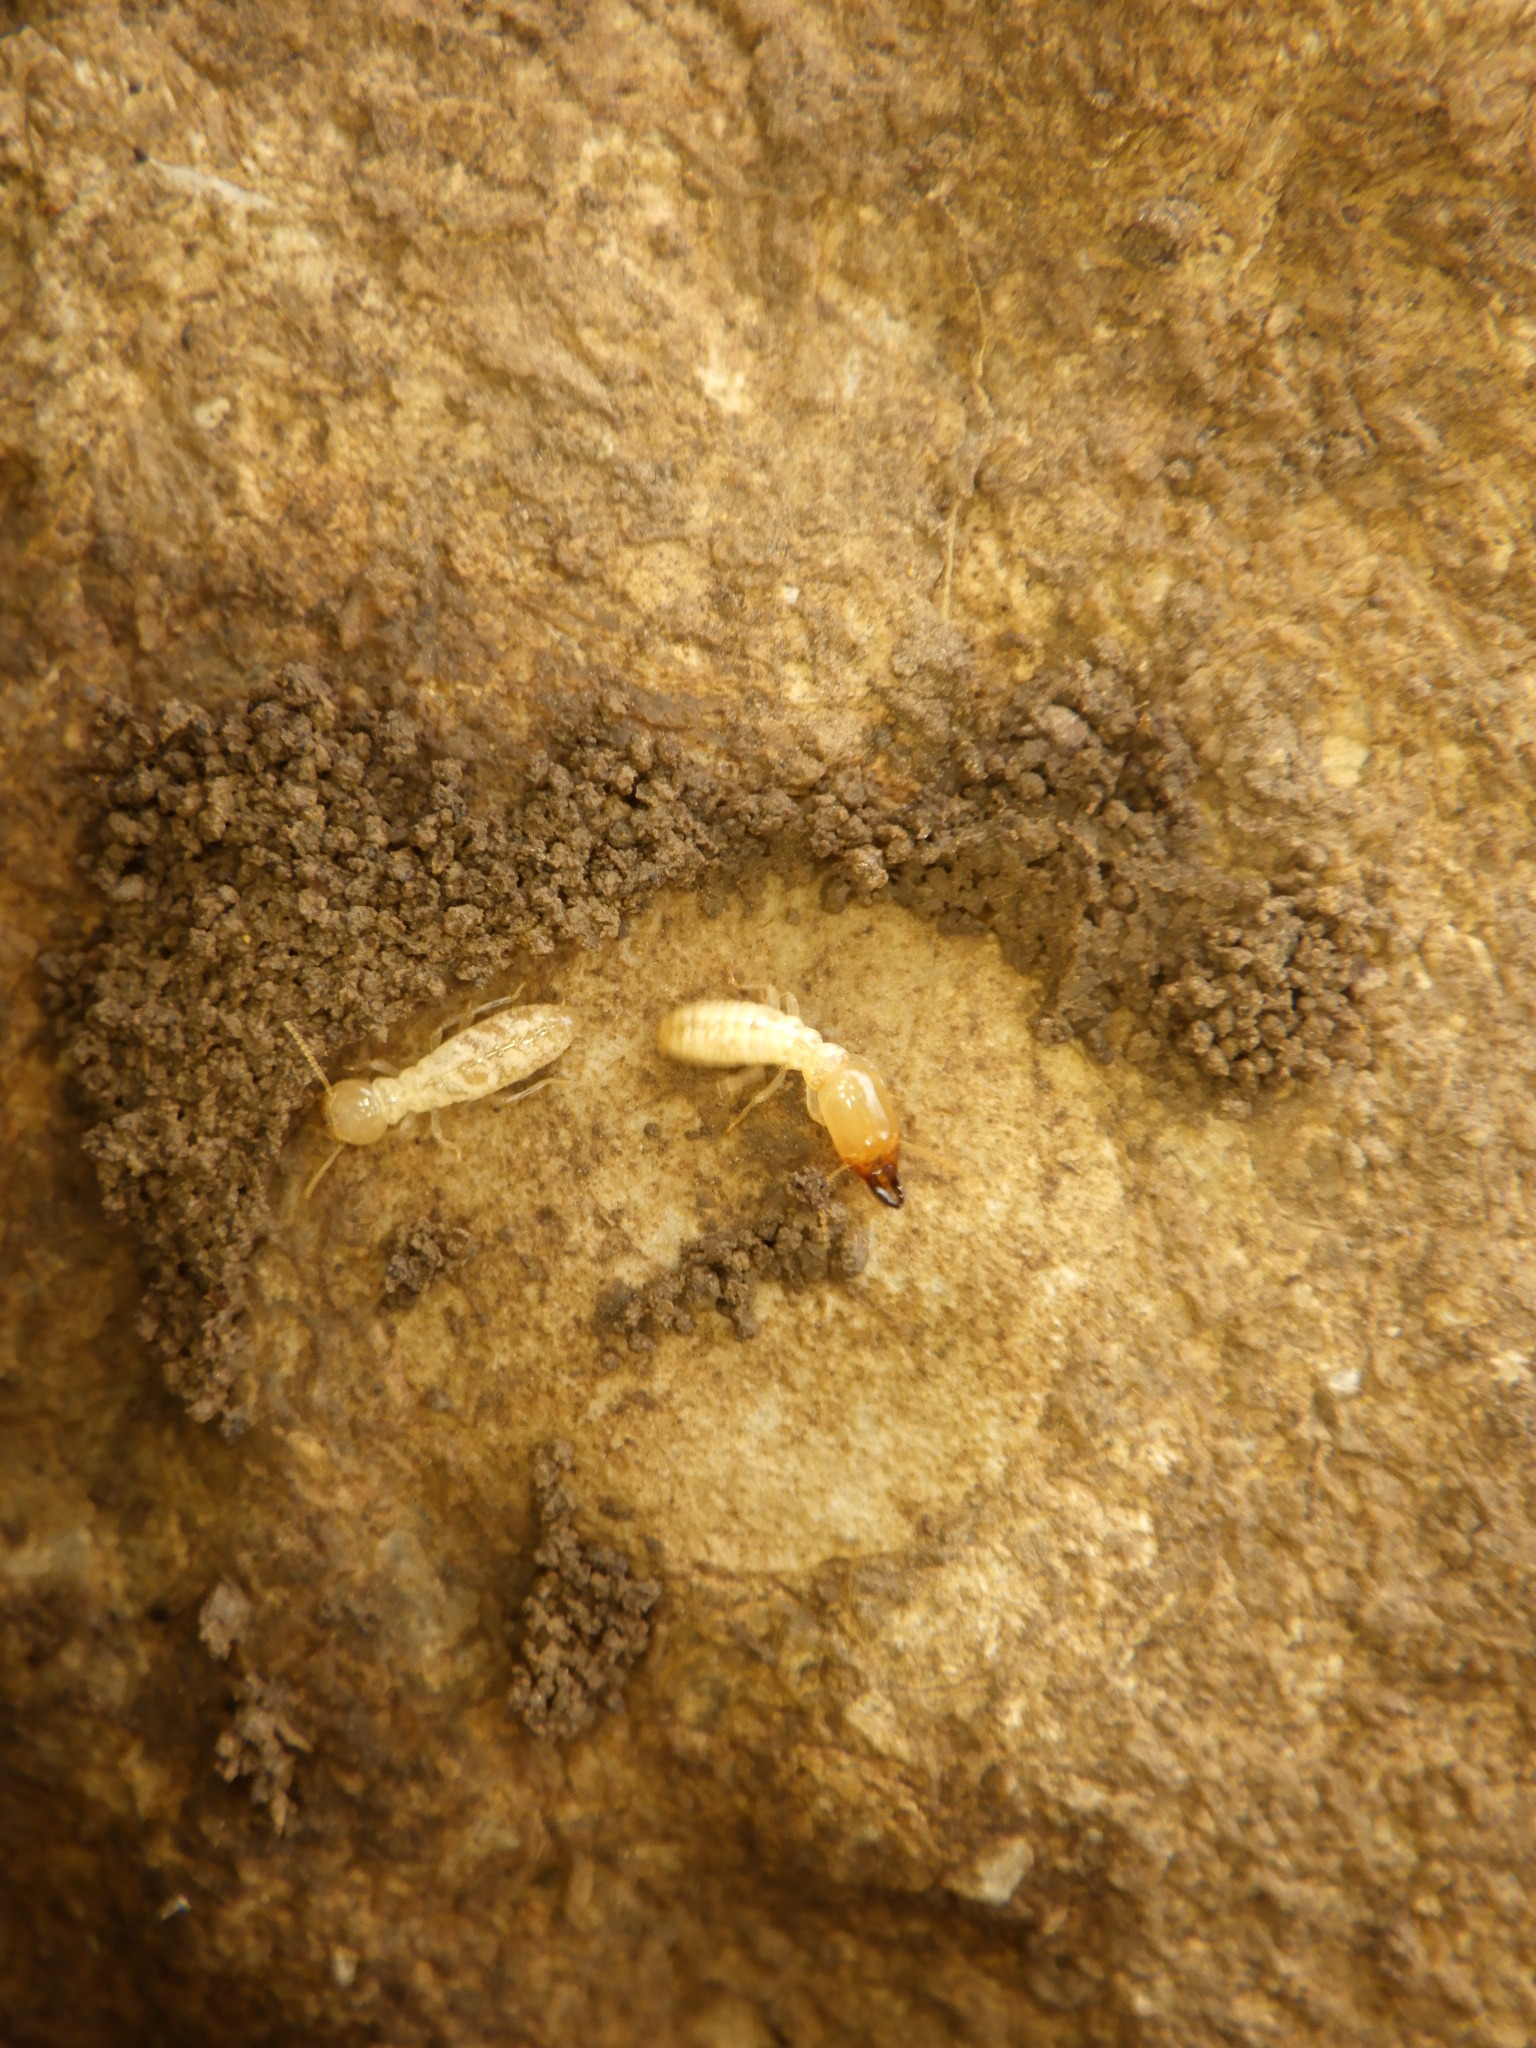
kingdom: Animalia
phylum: Arthropoda
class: Insecta
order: Blattodea
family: Rhinotermitidae
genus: Reticulitermes
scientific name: Reticulitermes flavipes
